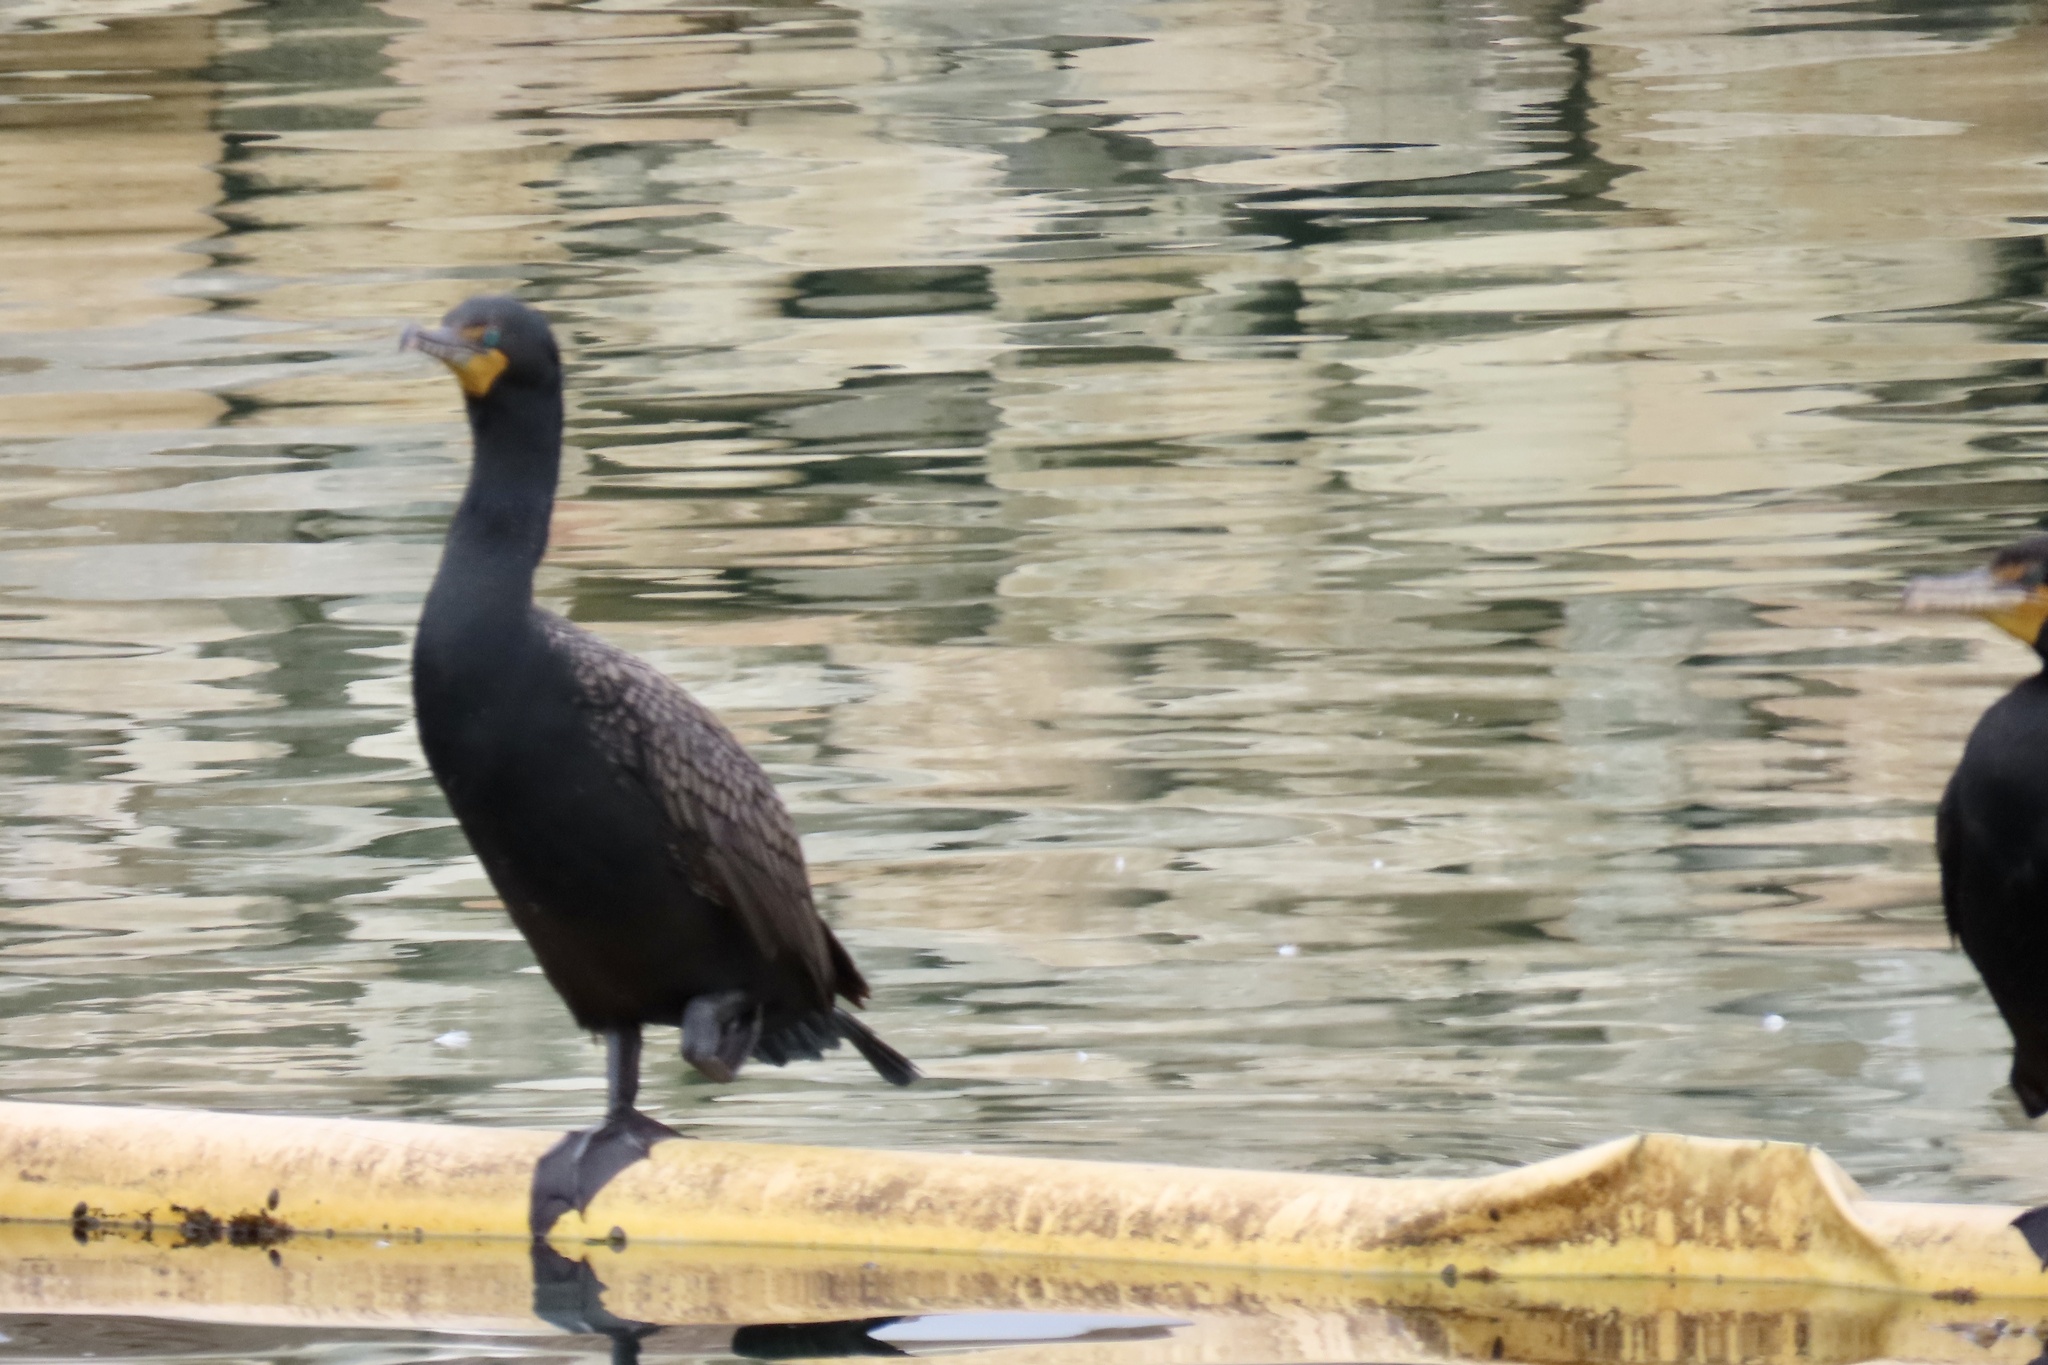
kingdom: Animalia
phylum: Chordata
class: Aves
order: Suliformes
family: Phalacrocoracidae
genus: Phalacrocorax
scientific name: Phalacrocorax auritus
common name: Double-crested cormorant
